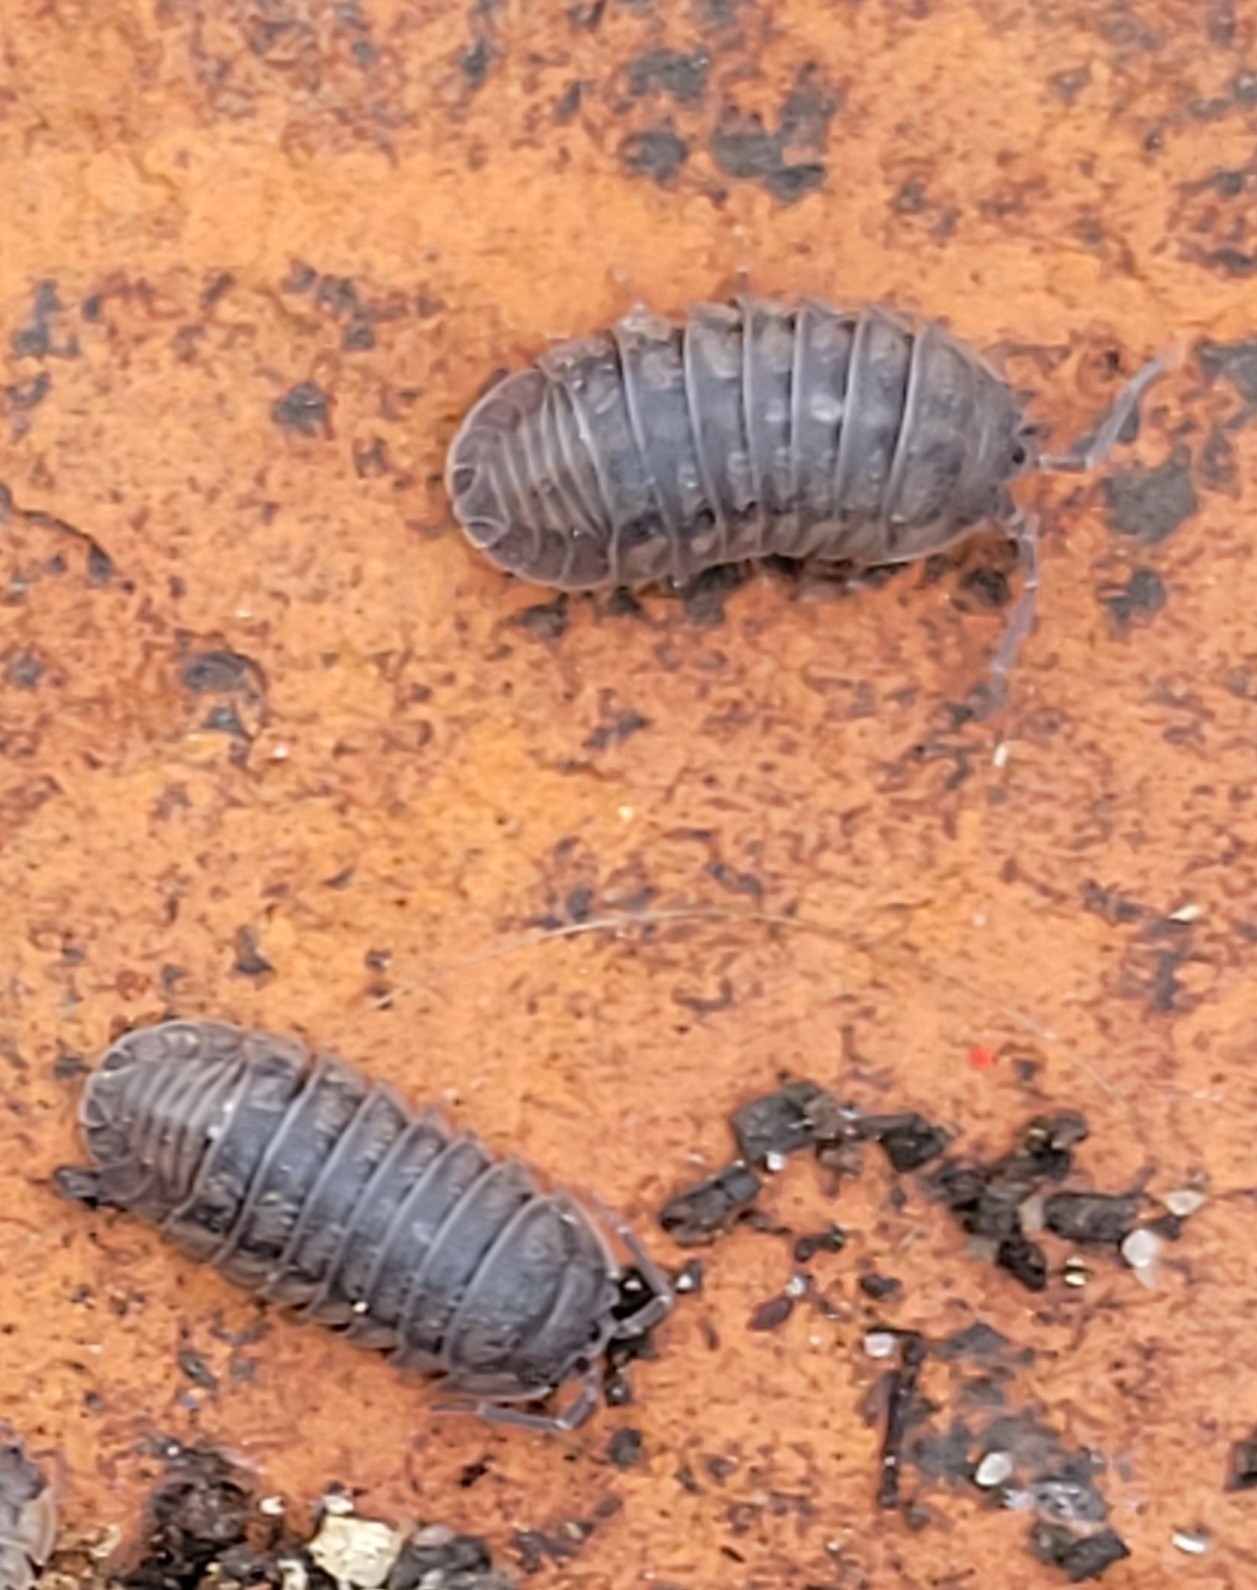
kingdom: Animalia
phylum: Arthropoda
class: Malacostraca
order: Isopoda
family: Armadillidiidae
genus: Armadillidium
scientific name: Armadillidium nasatum
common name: Isopod
